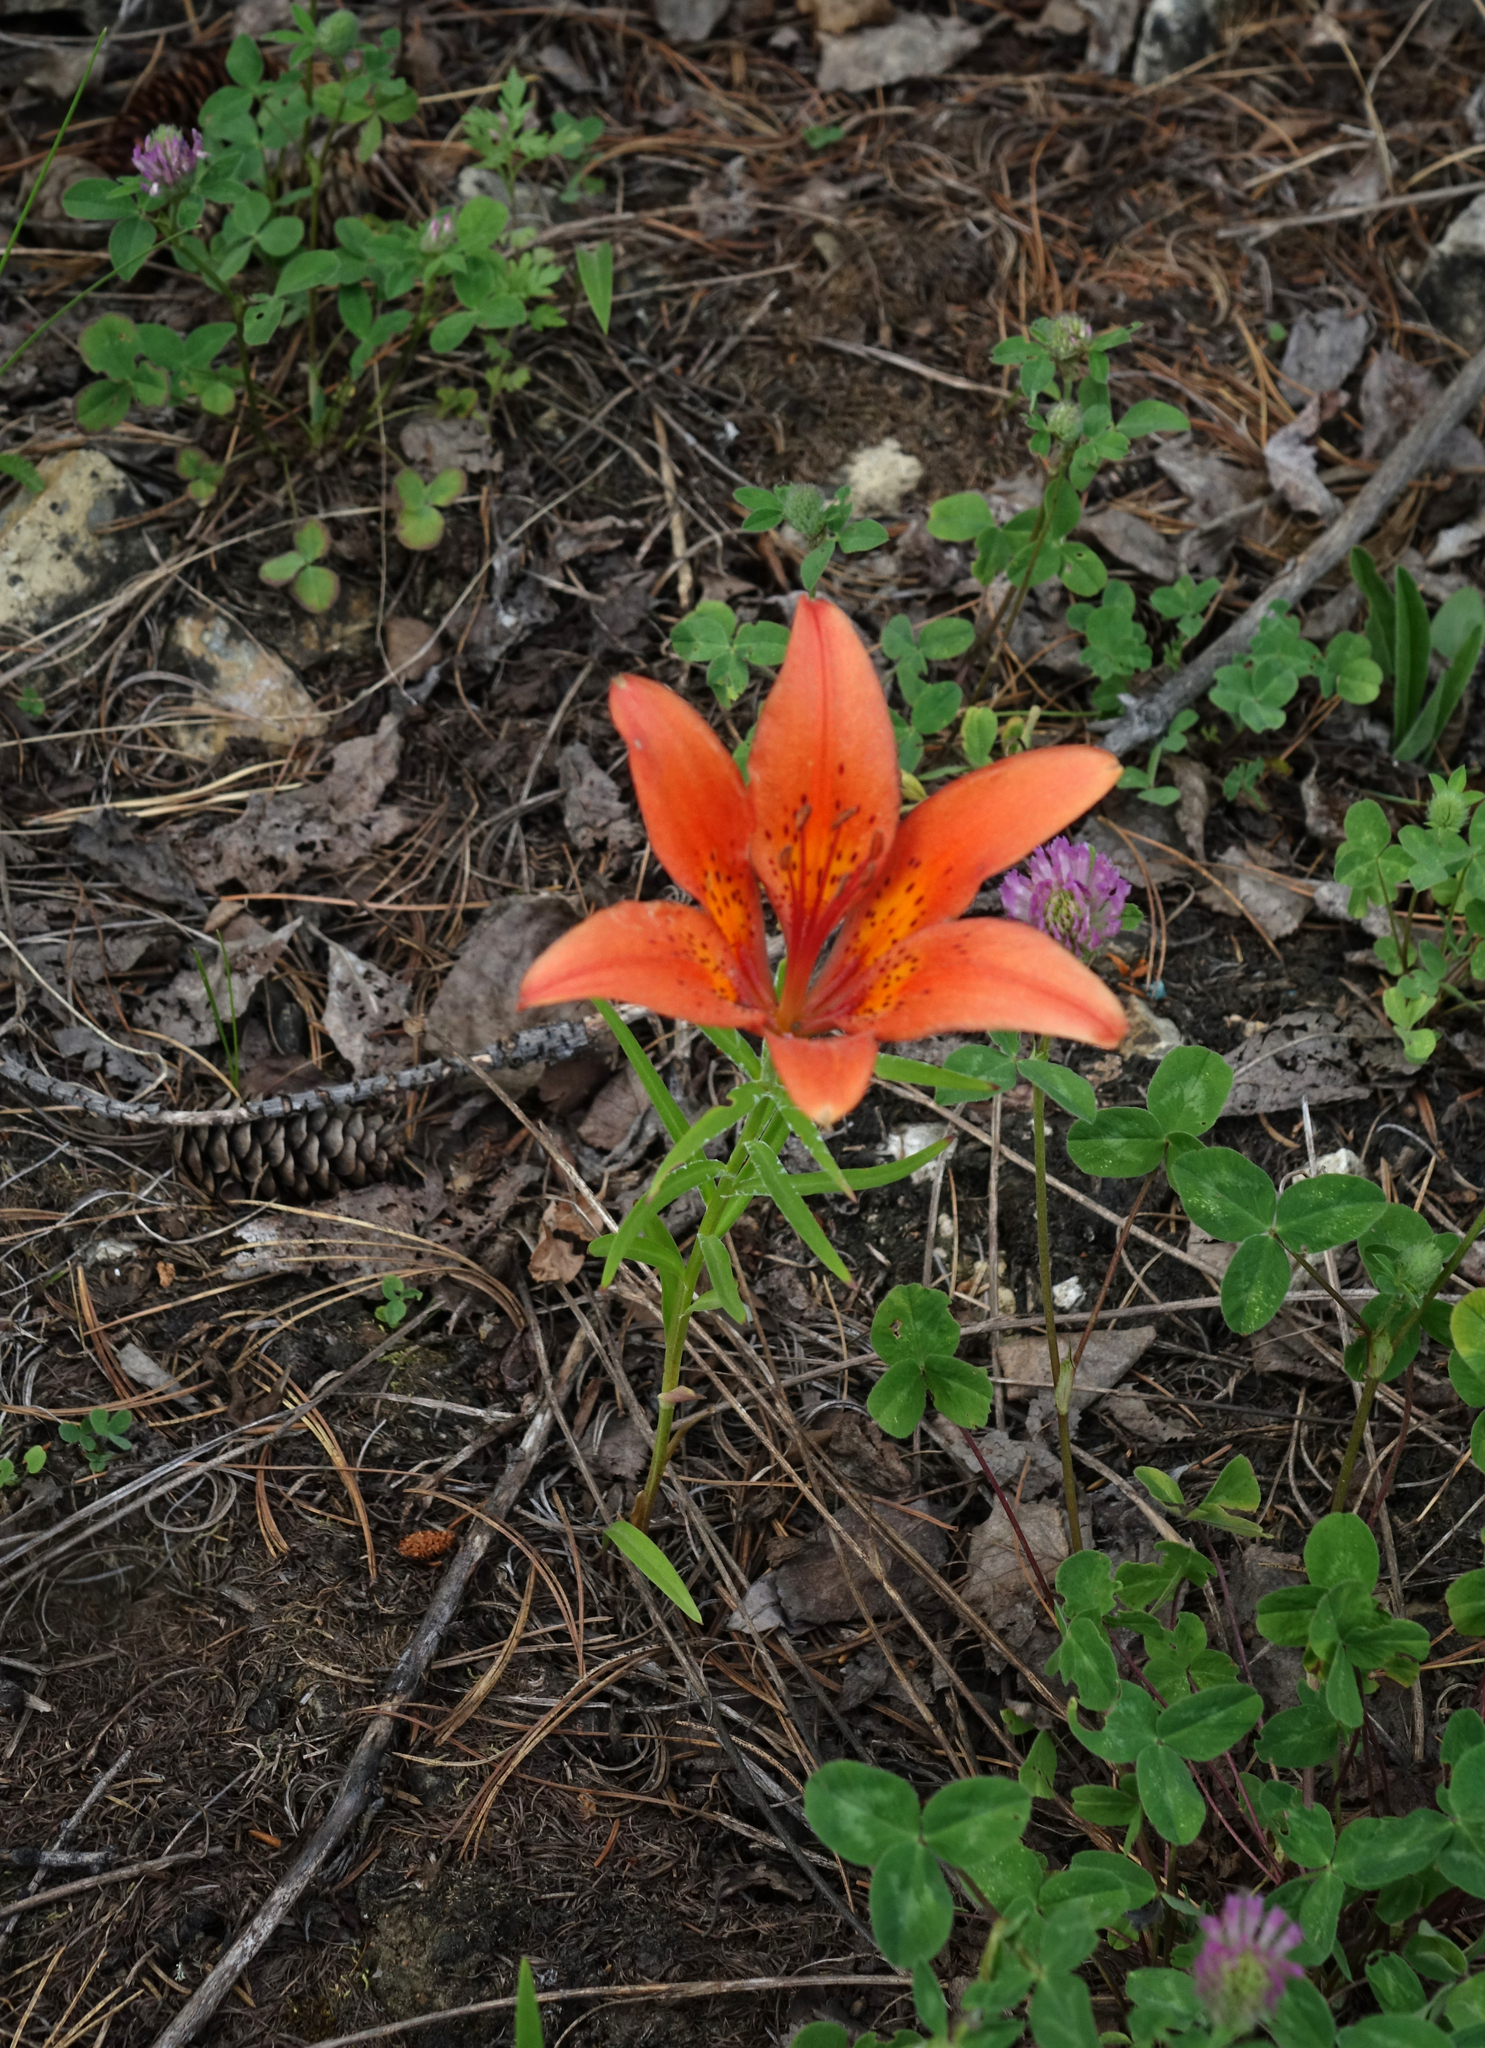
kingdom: Plantae
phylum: Tracheophyta
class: Liliopsida
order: Liliales
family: Liliaceae
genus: Lilium
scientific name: Lilium pensylvanicum
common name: Candlestick lily
